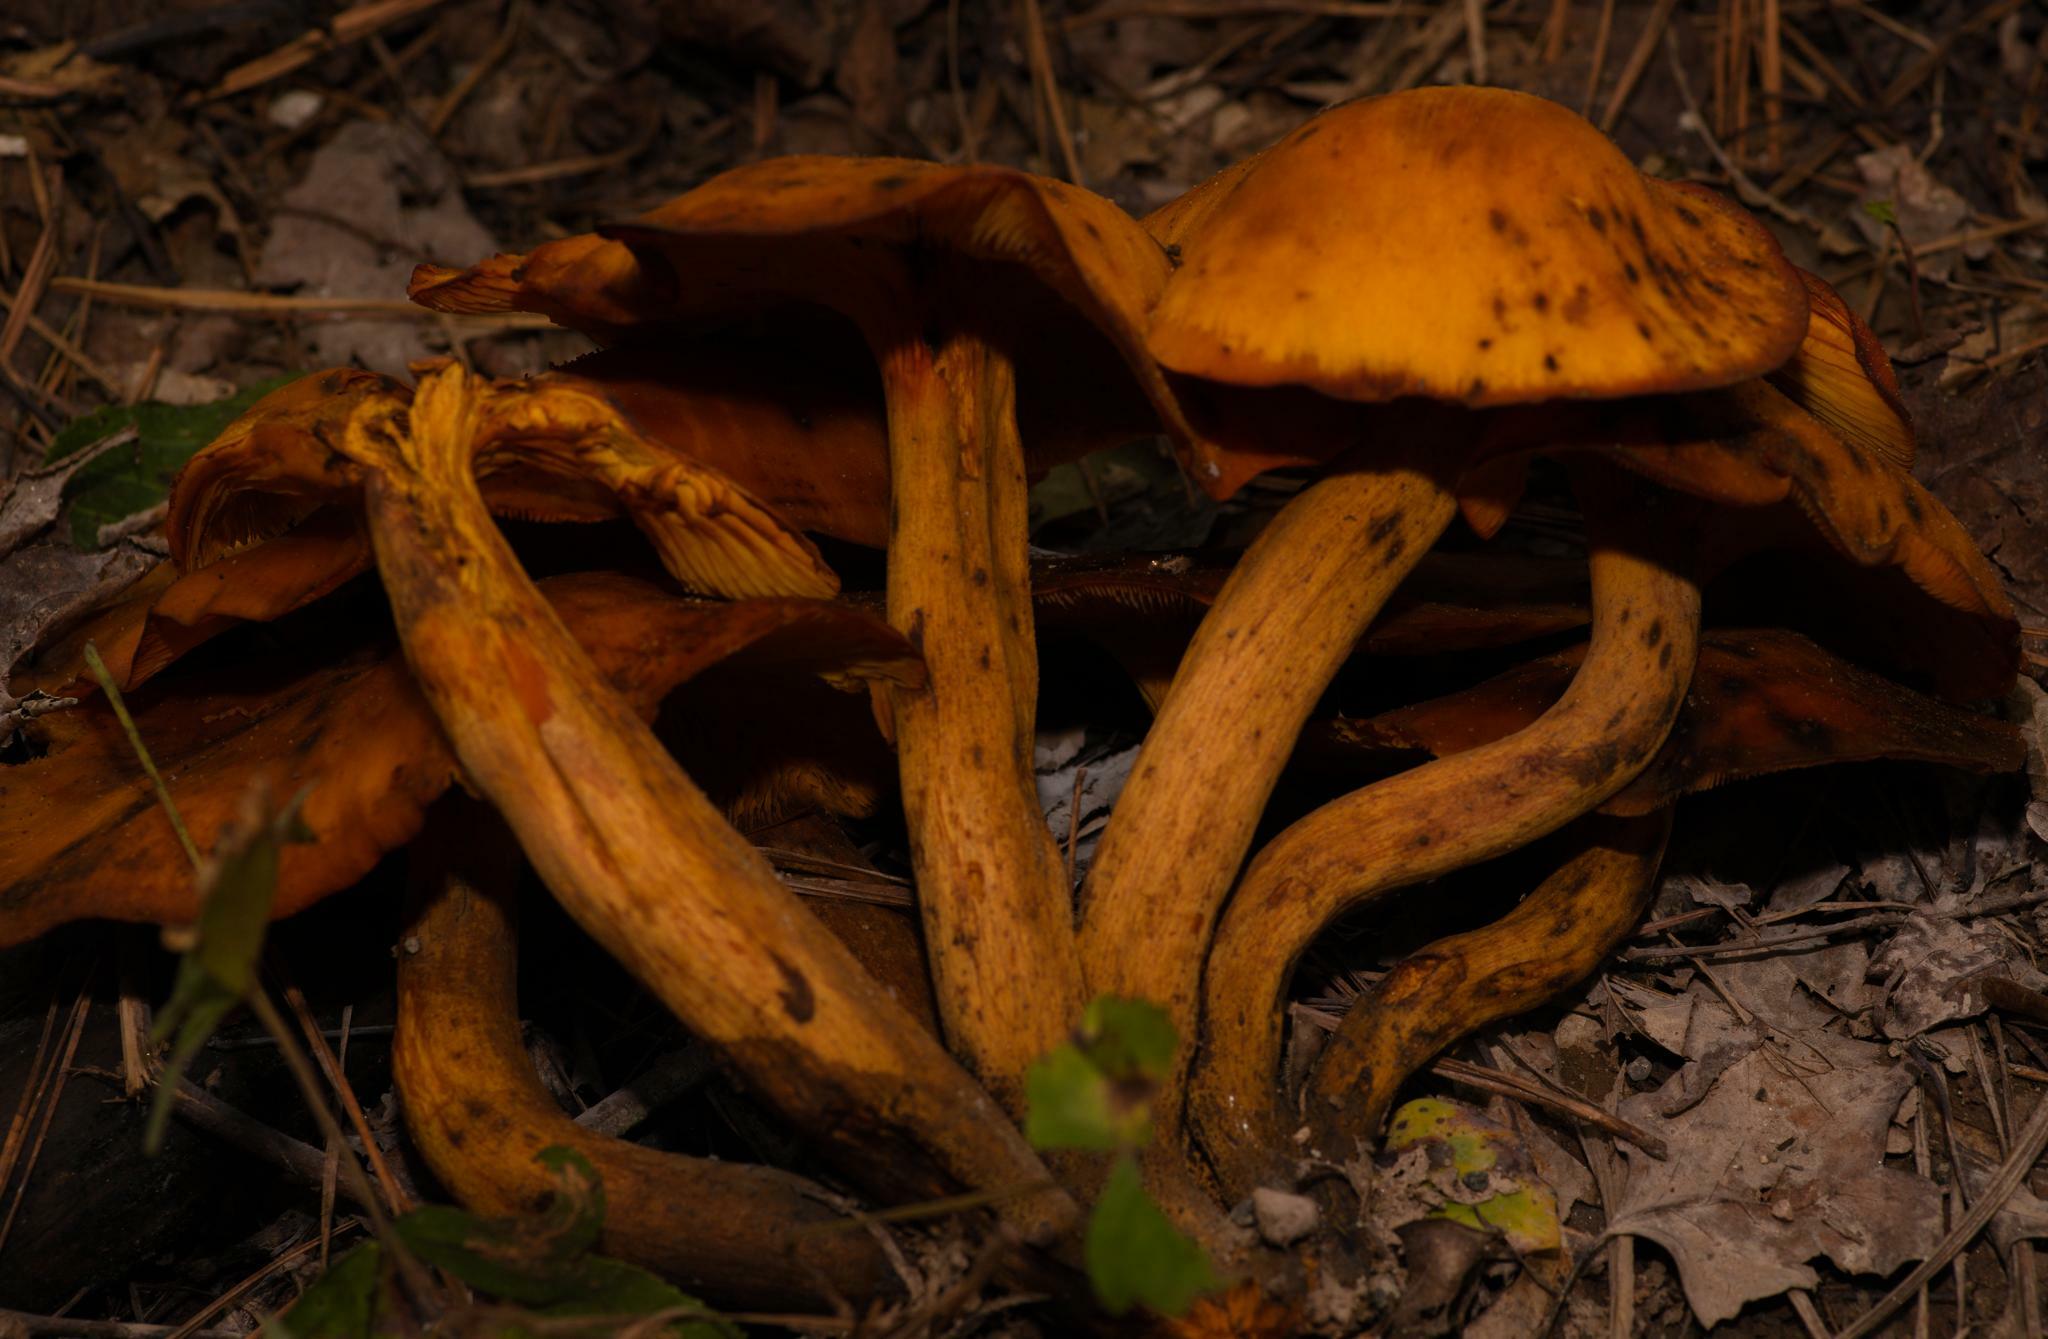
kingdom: Fungi
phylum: Basidiomycota
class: Agaricomycetes
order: Agaricales
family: Omphalotaceae
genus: Omphalotus
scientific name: Omphalotus illudens
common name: Jack o lantern
